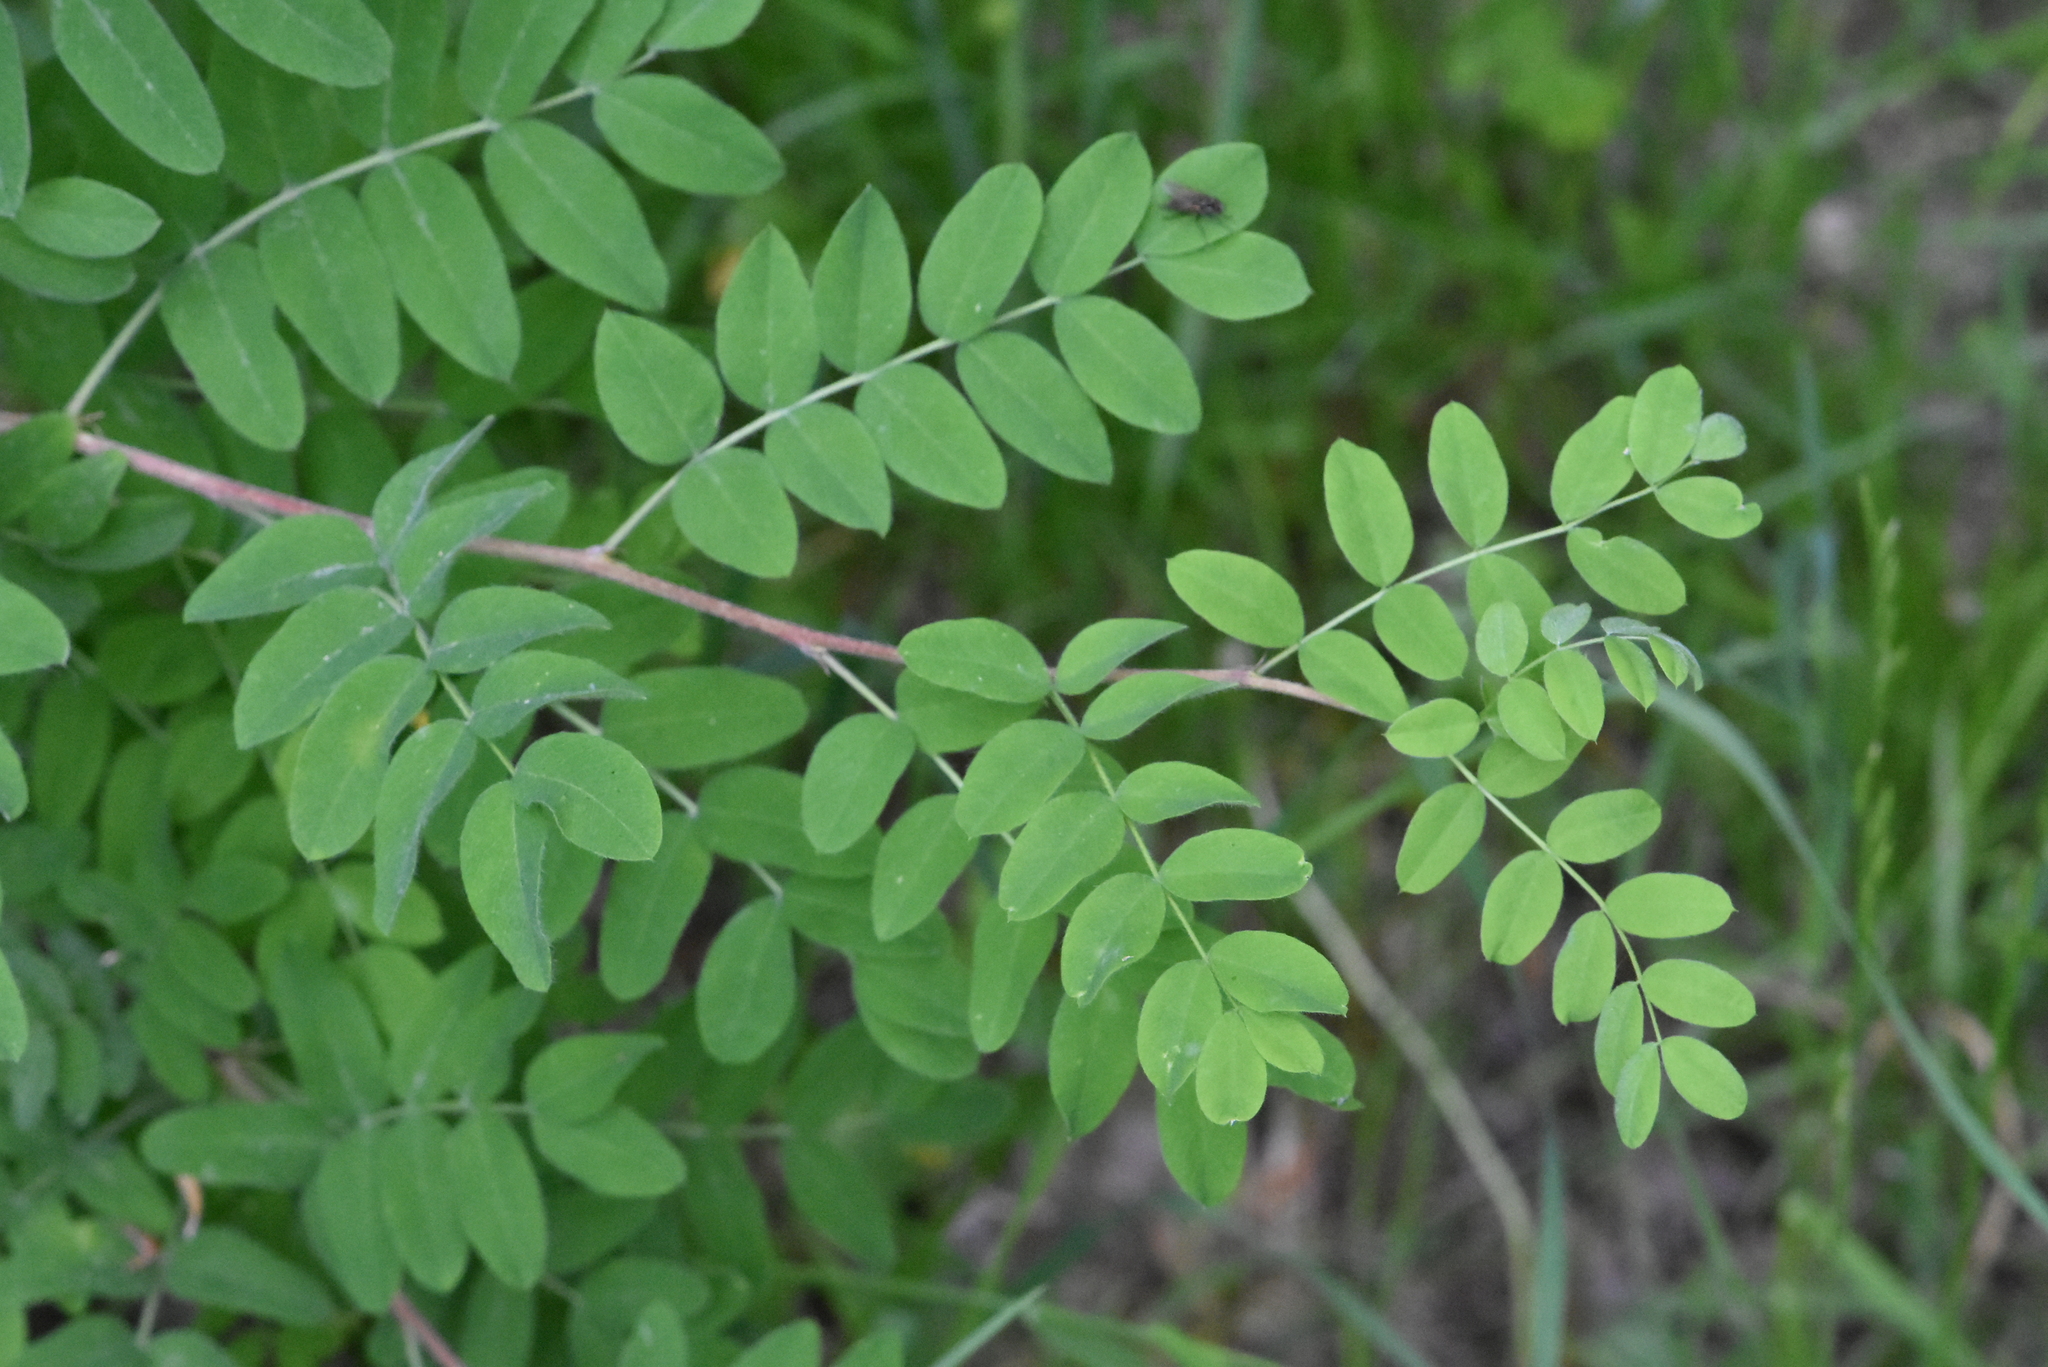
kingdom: Plantae
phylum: Tracheophyta
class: Magnoliopsida
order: Fabales
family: Fabaceae
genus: Caragana
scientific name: Caragana arborescens
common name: Siberian peashrub
